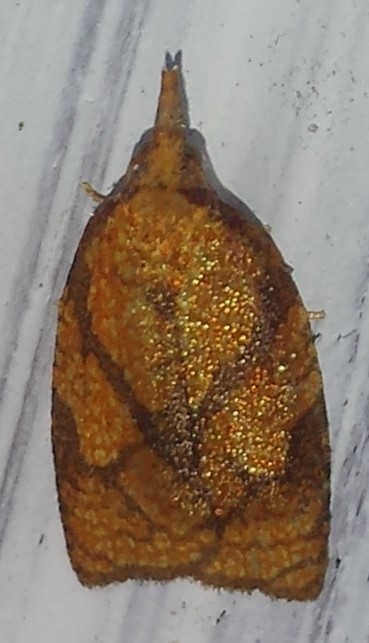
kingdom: Animalia
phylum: Arthropoda
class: Insecta
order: Lepidoptera
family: Tortricidae
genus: Cenopis
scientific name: Cenopis reticulatana
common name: Reticulated fruitworm moth
